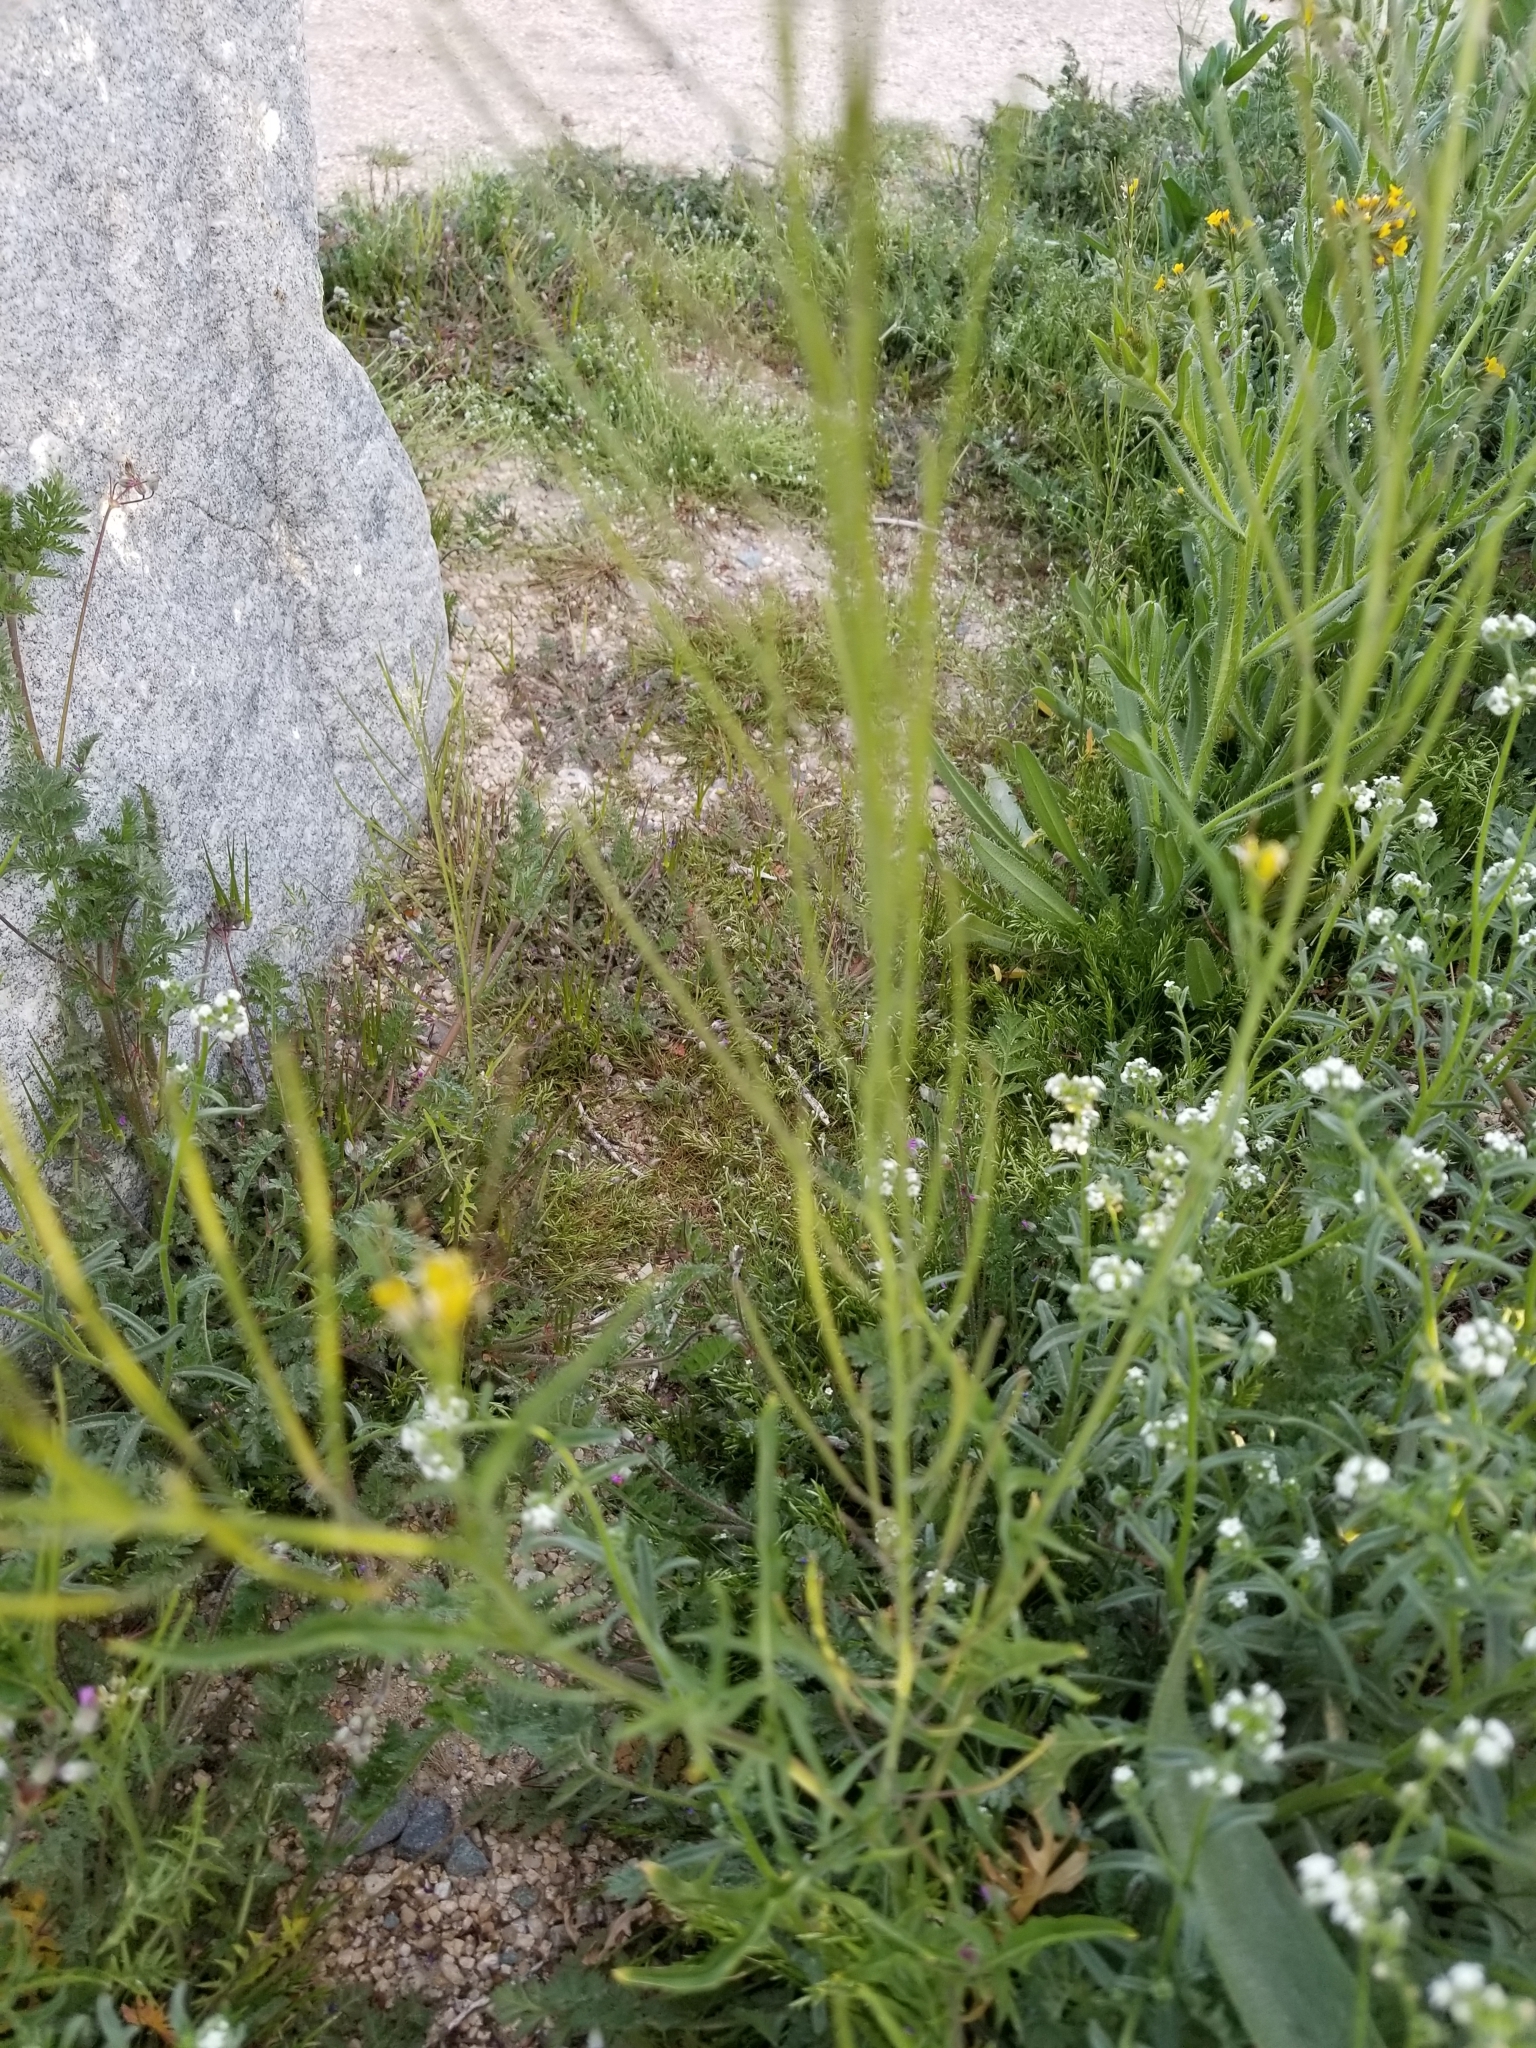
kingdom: Plantae
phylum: Tracheophyta
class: Magnoliopsida
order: Brassicales
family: Brassicaceae
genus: Sisymbrium
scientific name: Sisymbrium irio
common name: London rocket
